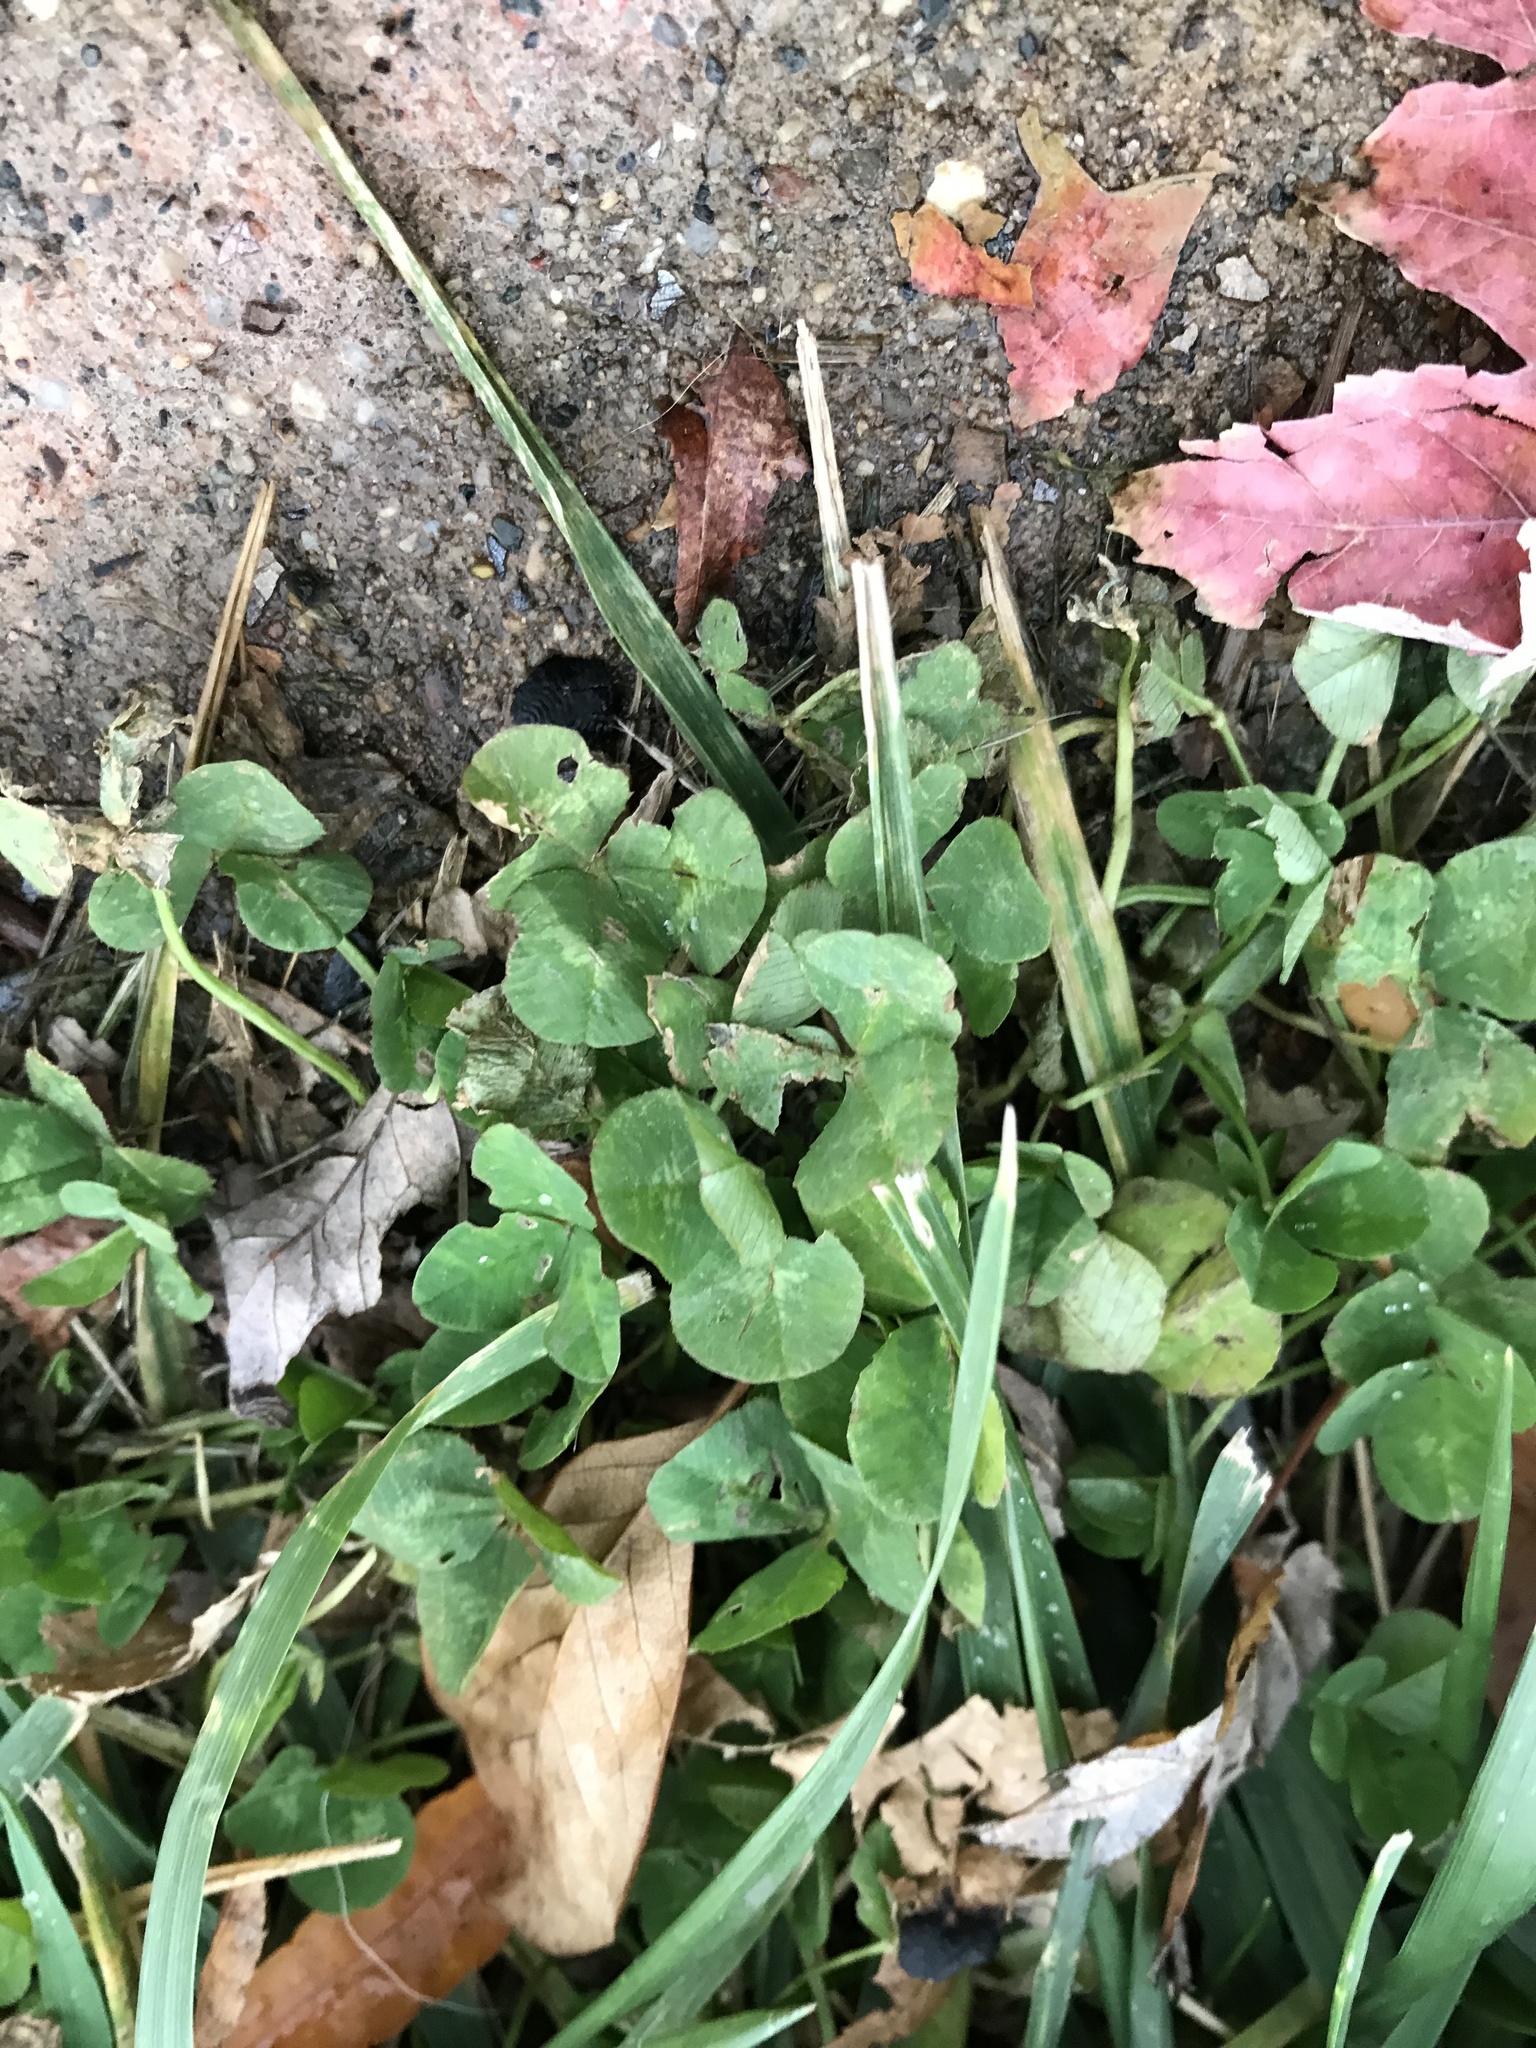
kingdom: Plantae
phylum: Tracheophyta
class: Magnoliopsida
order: Fabales
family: Fabaceae
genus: Trifolium
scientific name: Trifolium repens
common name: White clover
